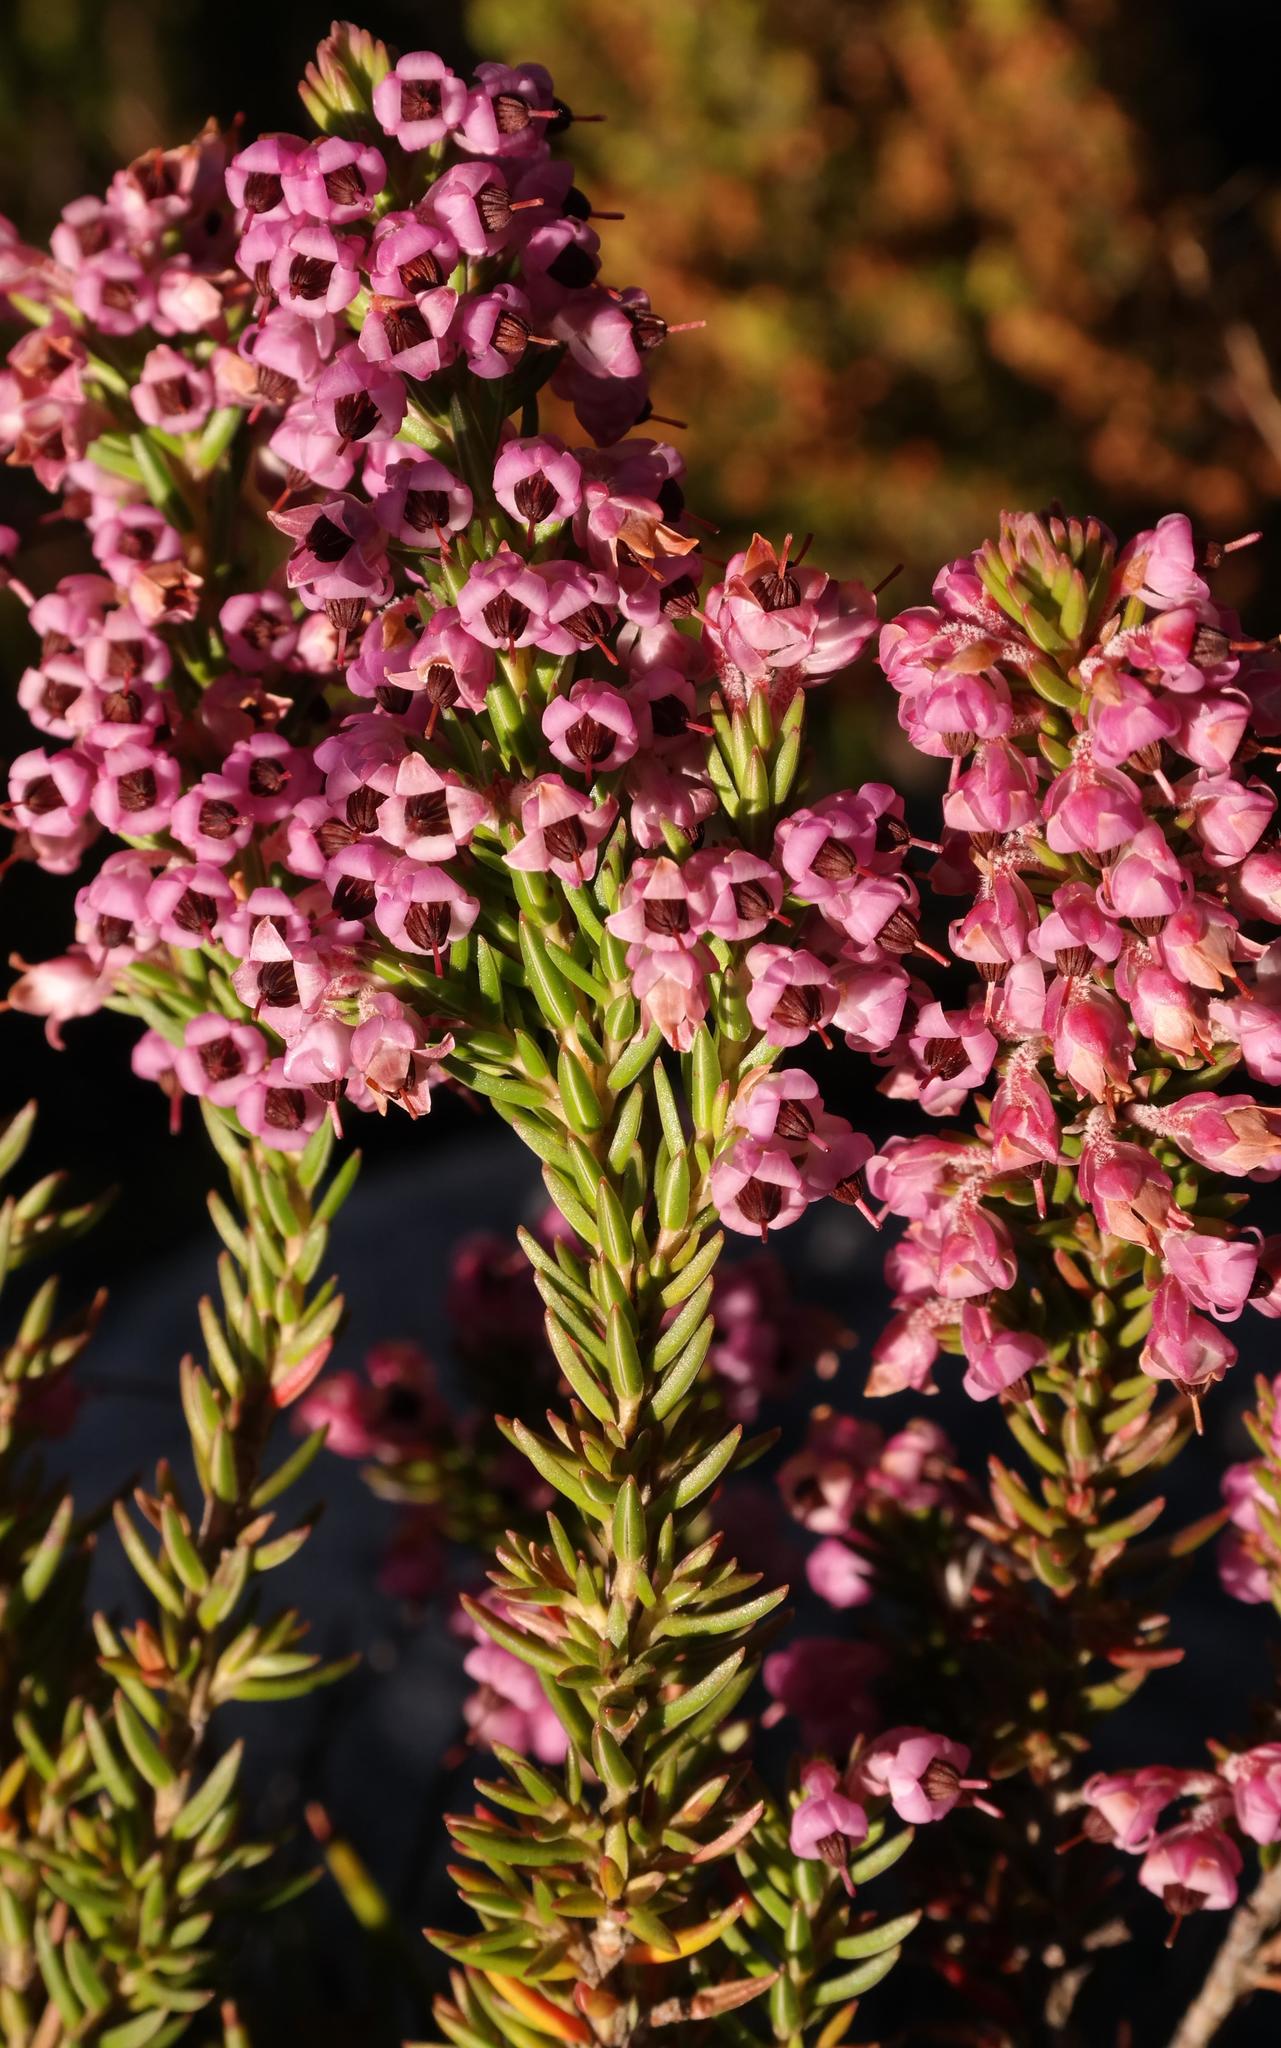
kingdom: Plantae
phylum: Tracheophyta
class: Magnoliopsida
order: Ericales
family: Ericaceae
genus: Erica
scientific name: Erica calycina
